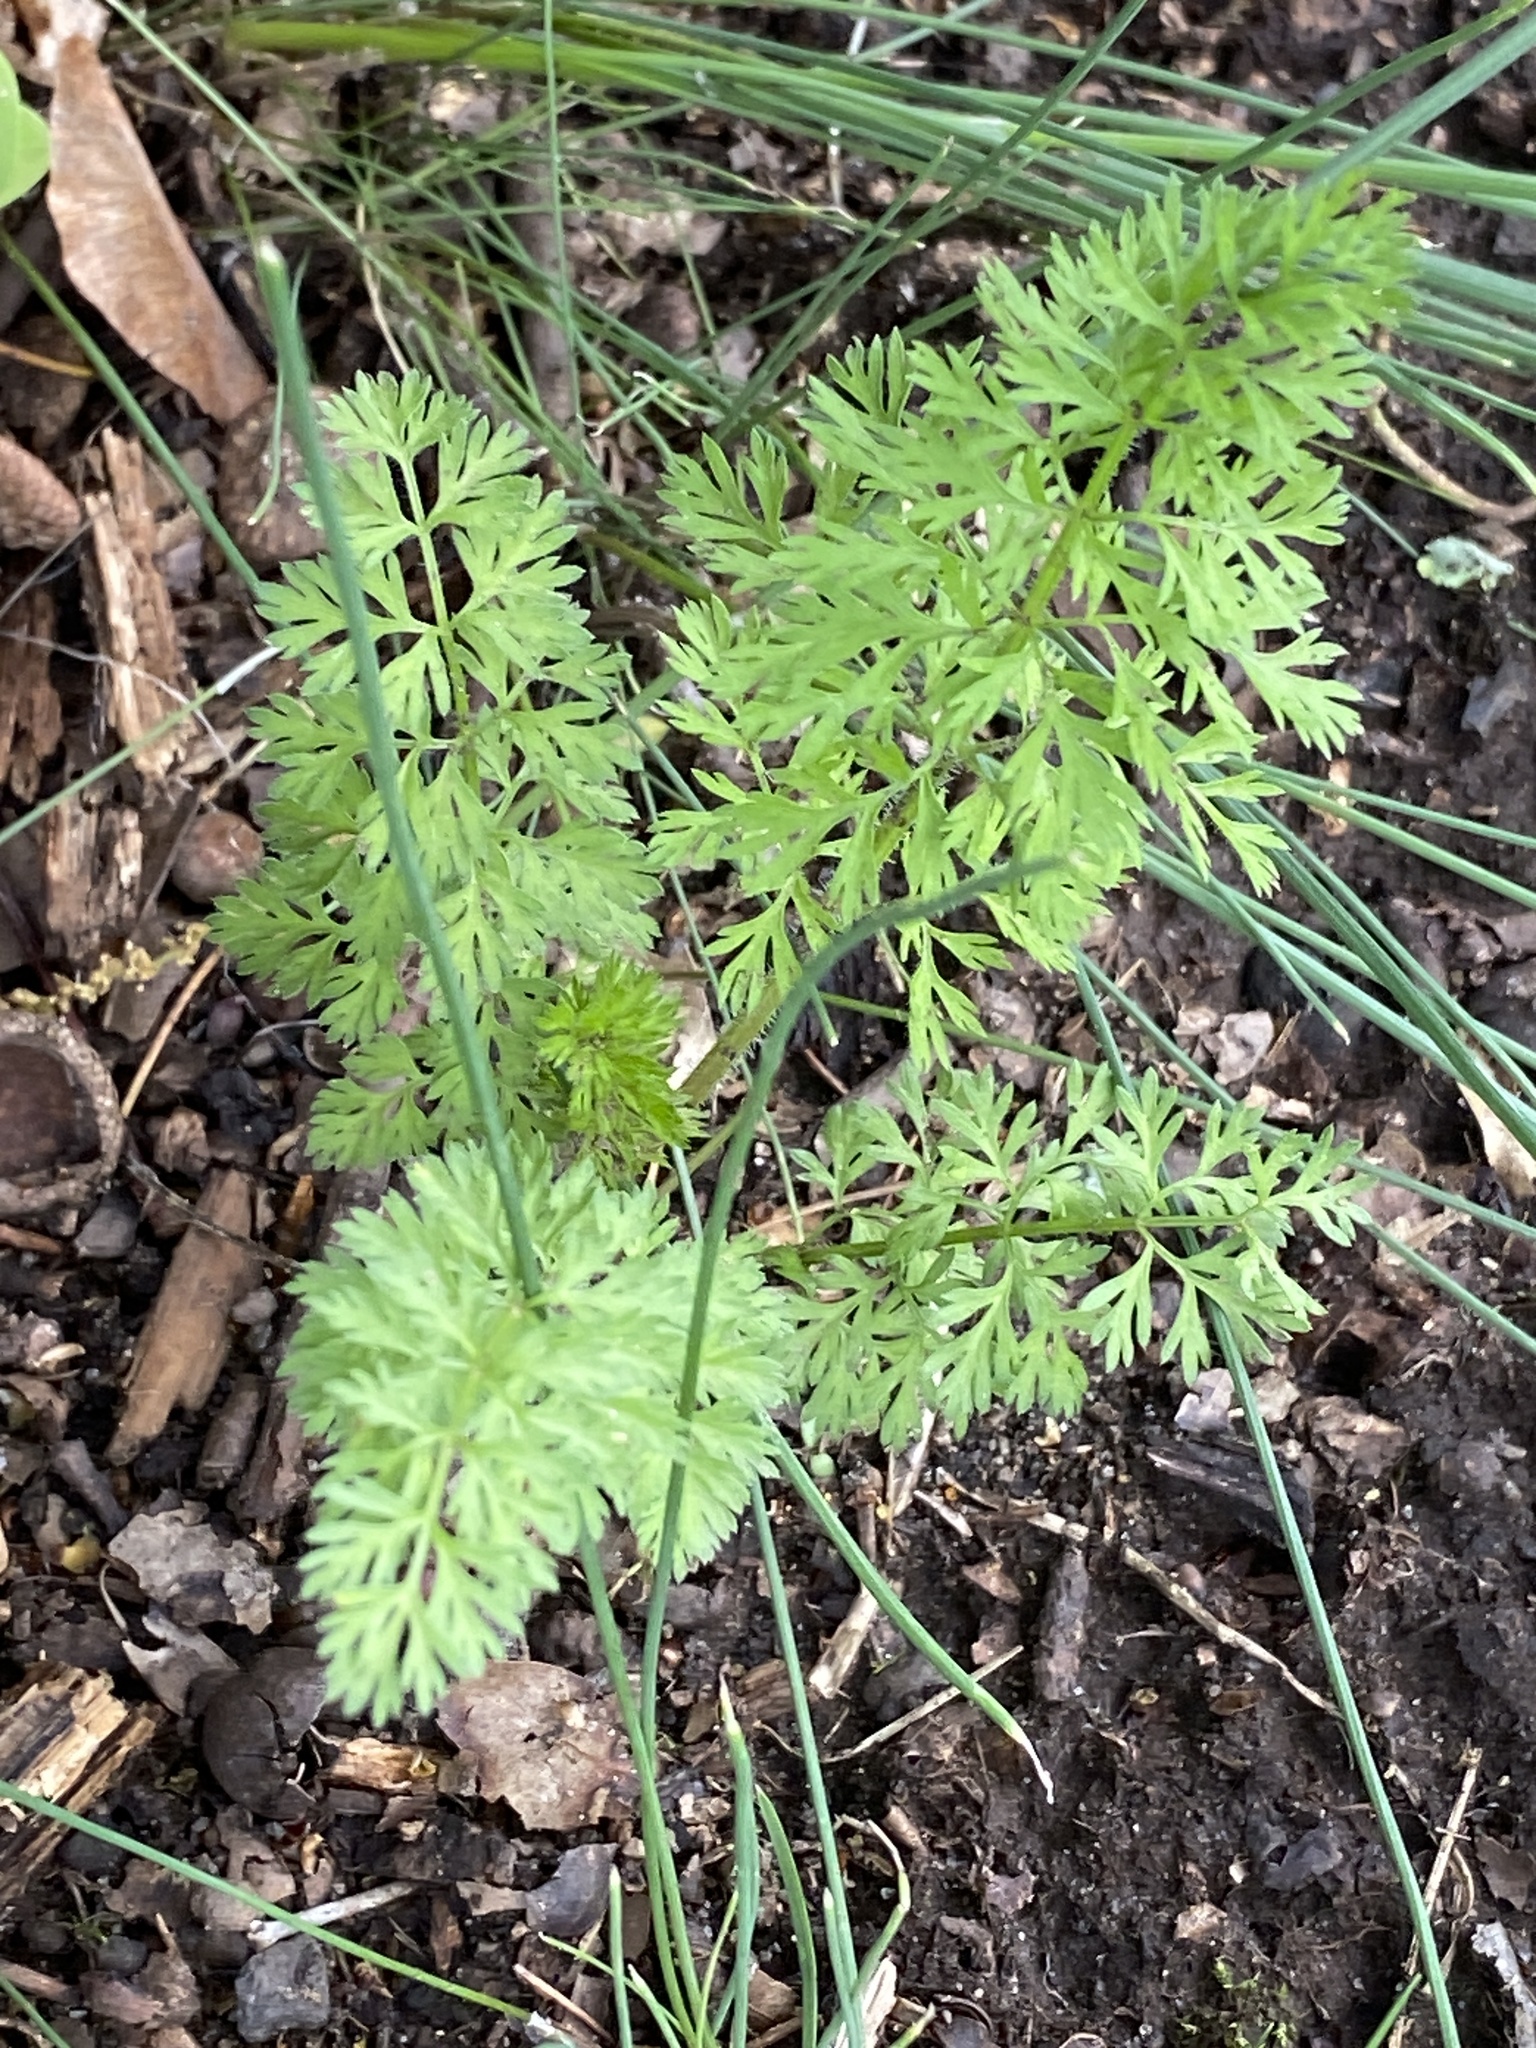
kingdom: Plantae
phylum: Tracheophyta
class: Magnoliopsida
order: Apiales
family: Apiaceae
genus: Daucus
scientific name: Daucus carota
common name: Wild carrot
